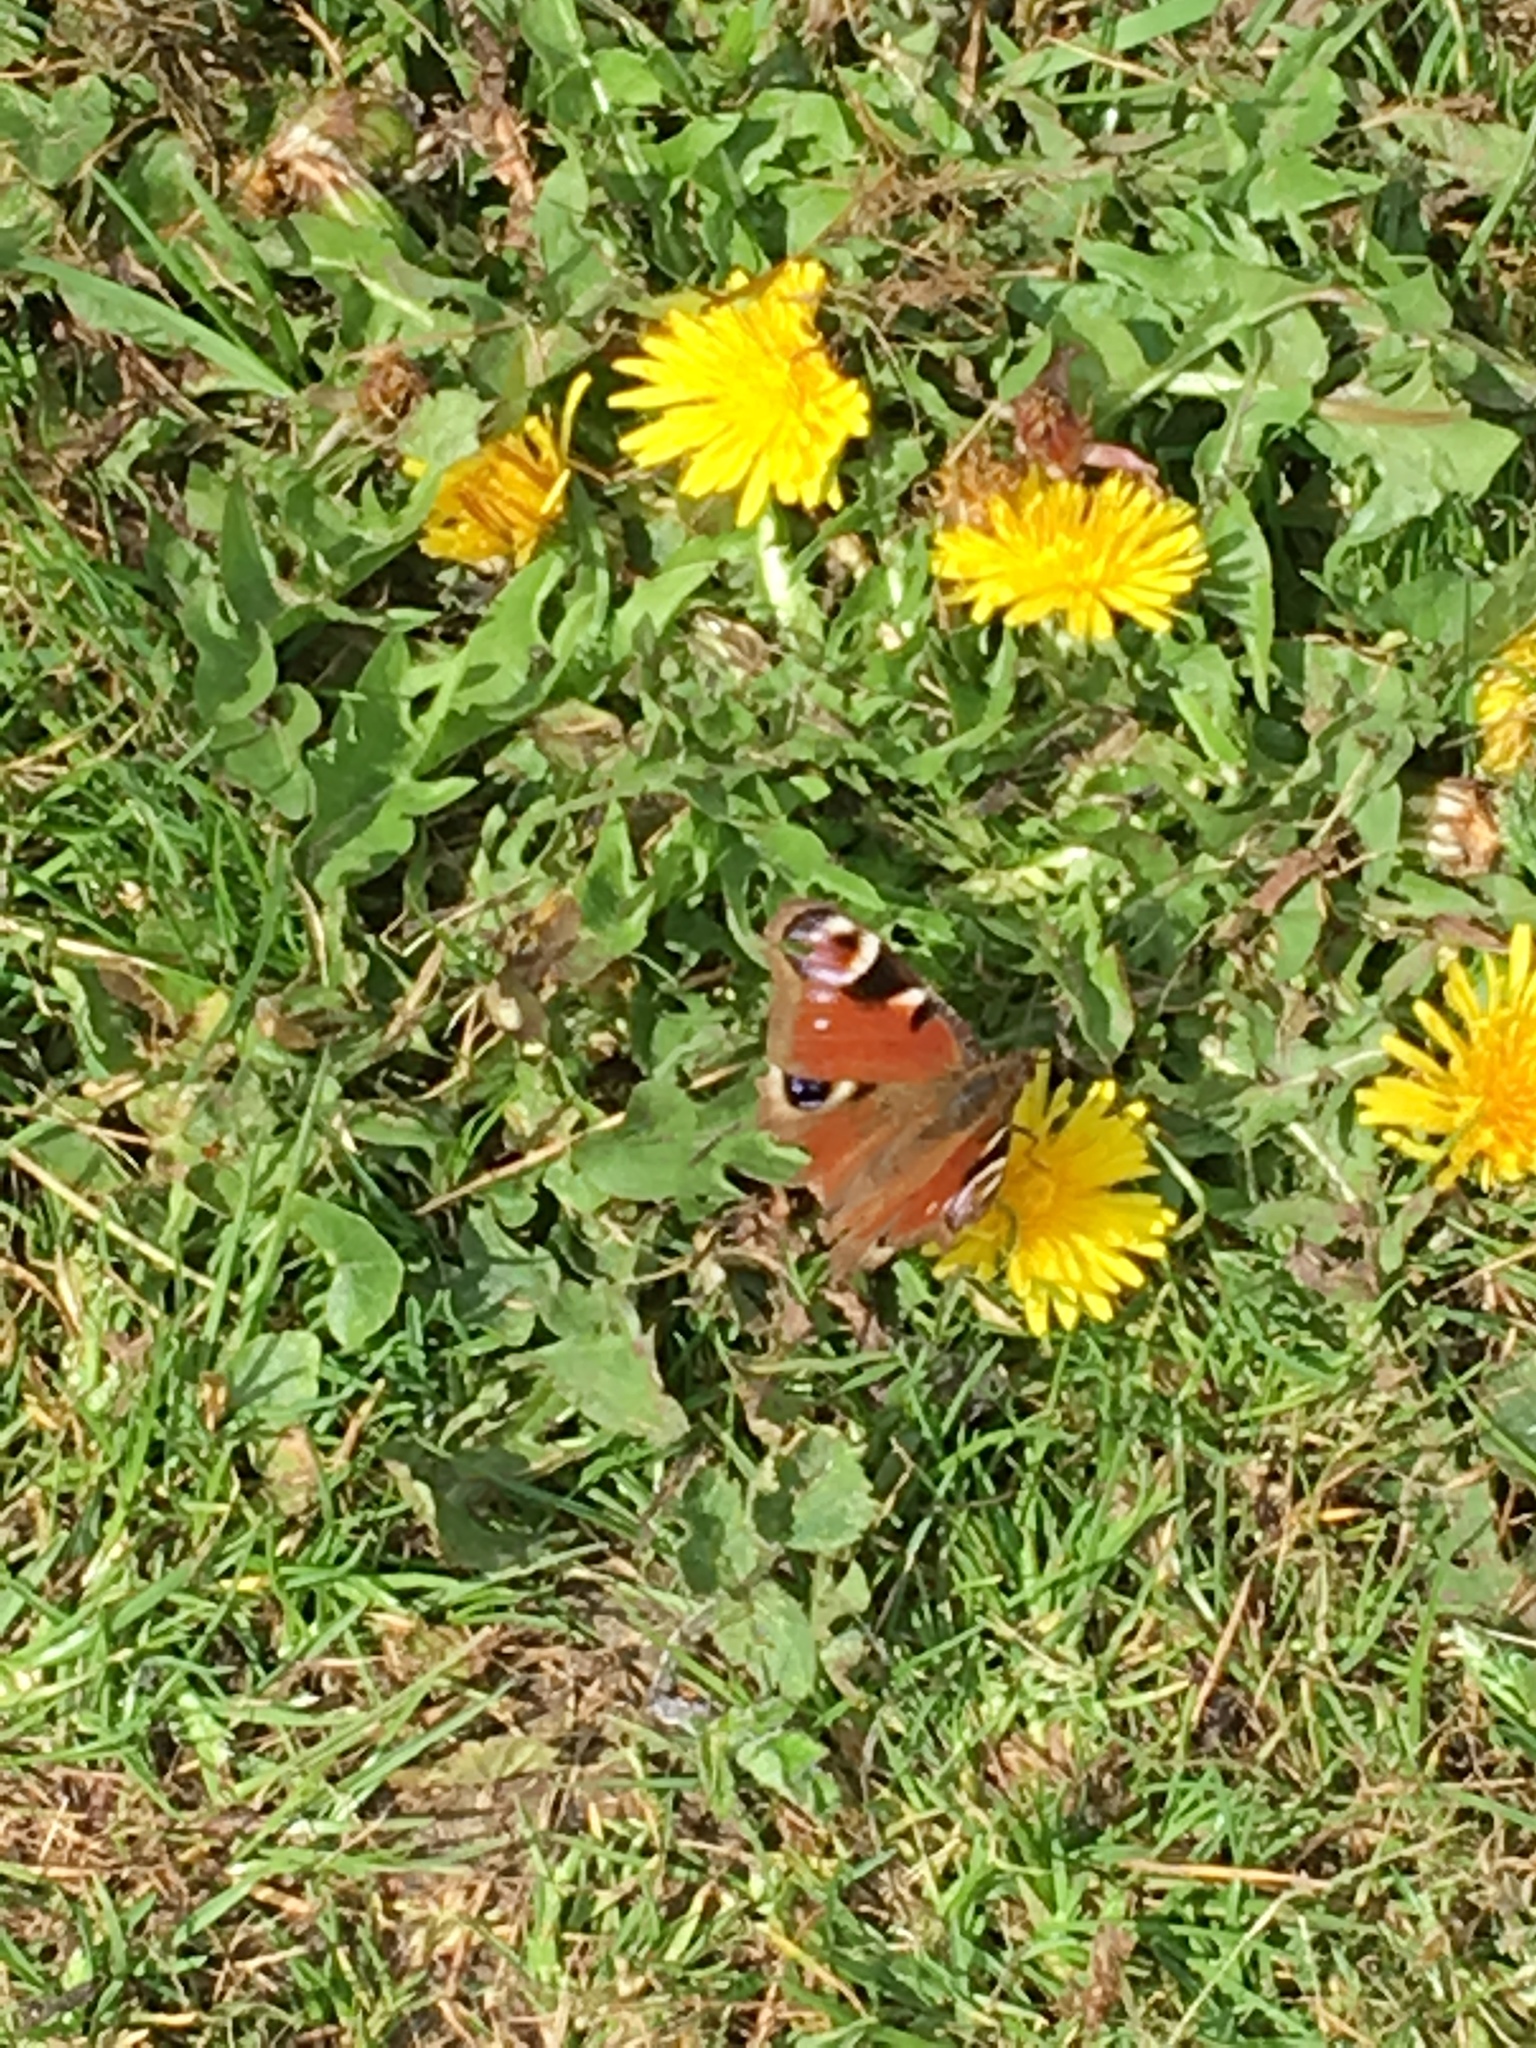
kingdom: Animalia
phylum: Arthropoda
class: Insecta
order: Lepidoptera
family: Nymphalidae
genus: Aglais
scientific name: Aglais io
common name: Peacock
